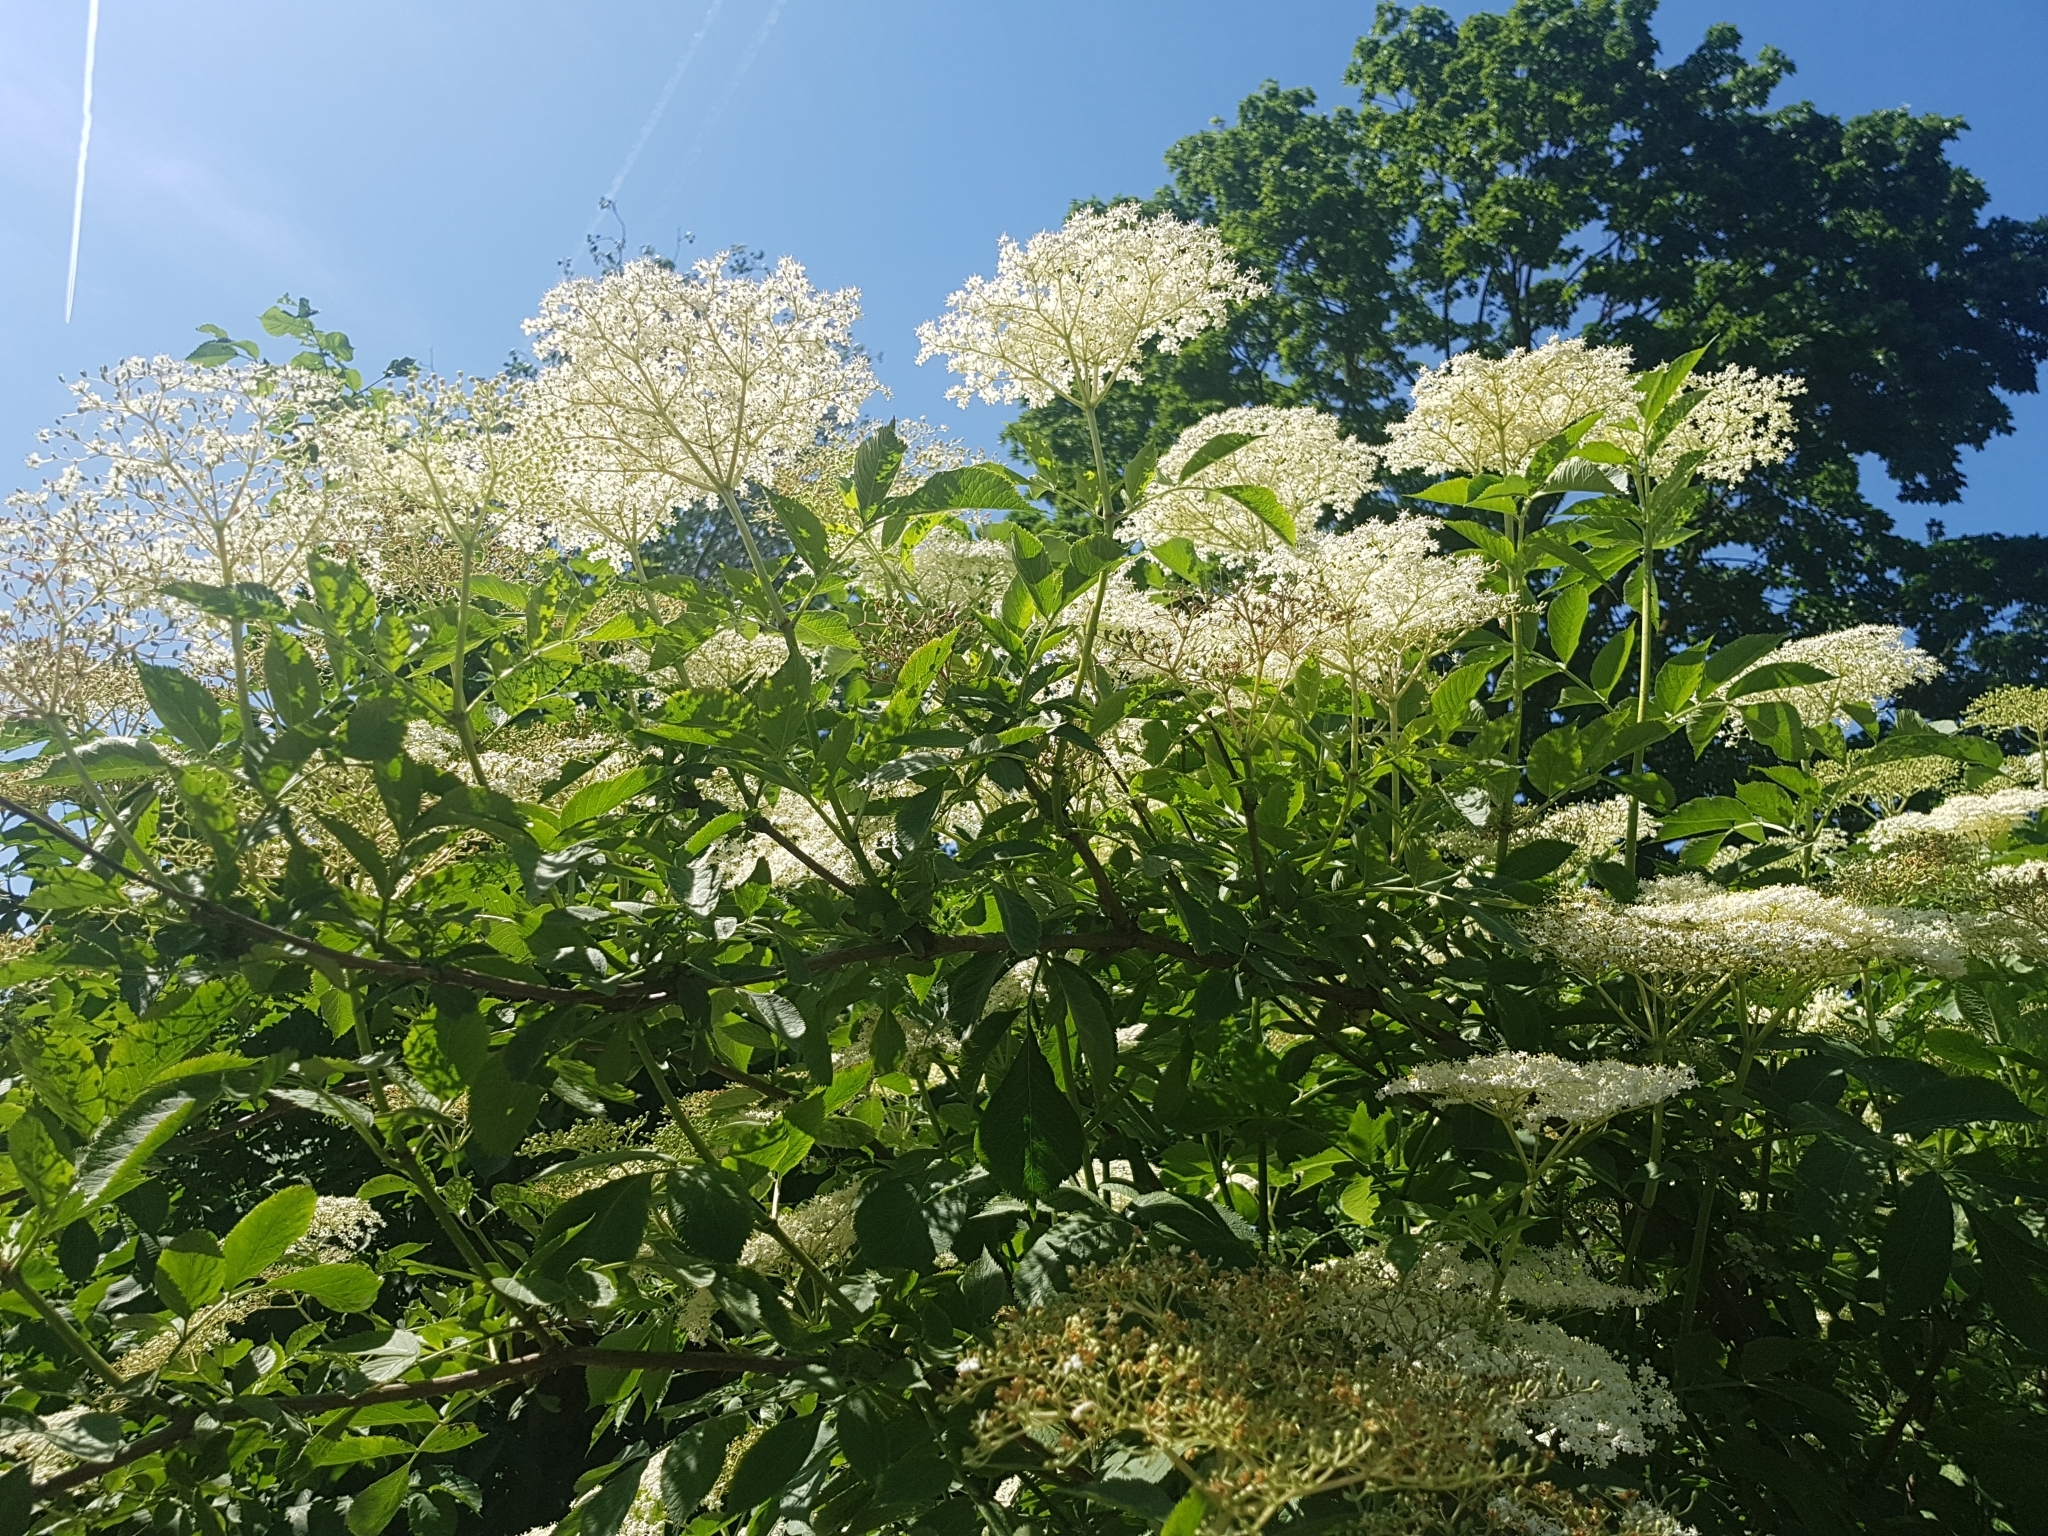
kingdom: Plantae
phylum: Tracheophyta
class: Magnoliopsida
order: Dipsacales
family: Viburnaceae
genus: Sambucus
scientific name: Sambucus nigra
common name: Elder
